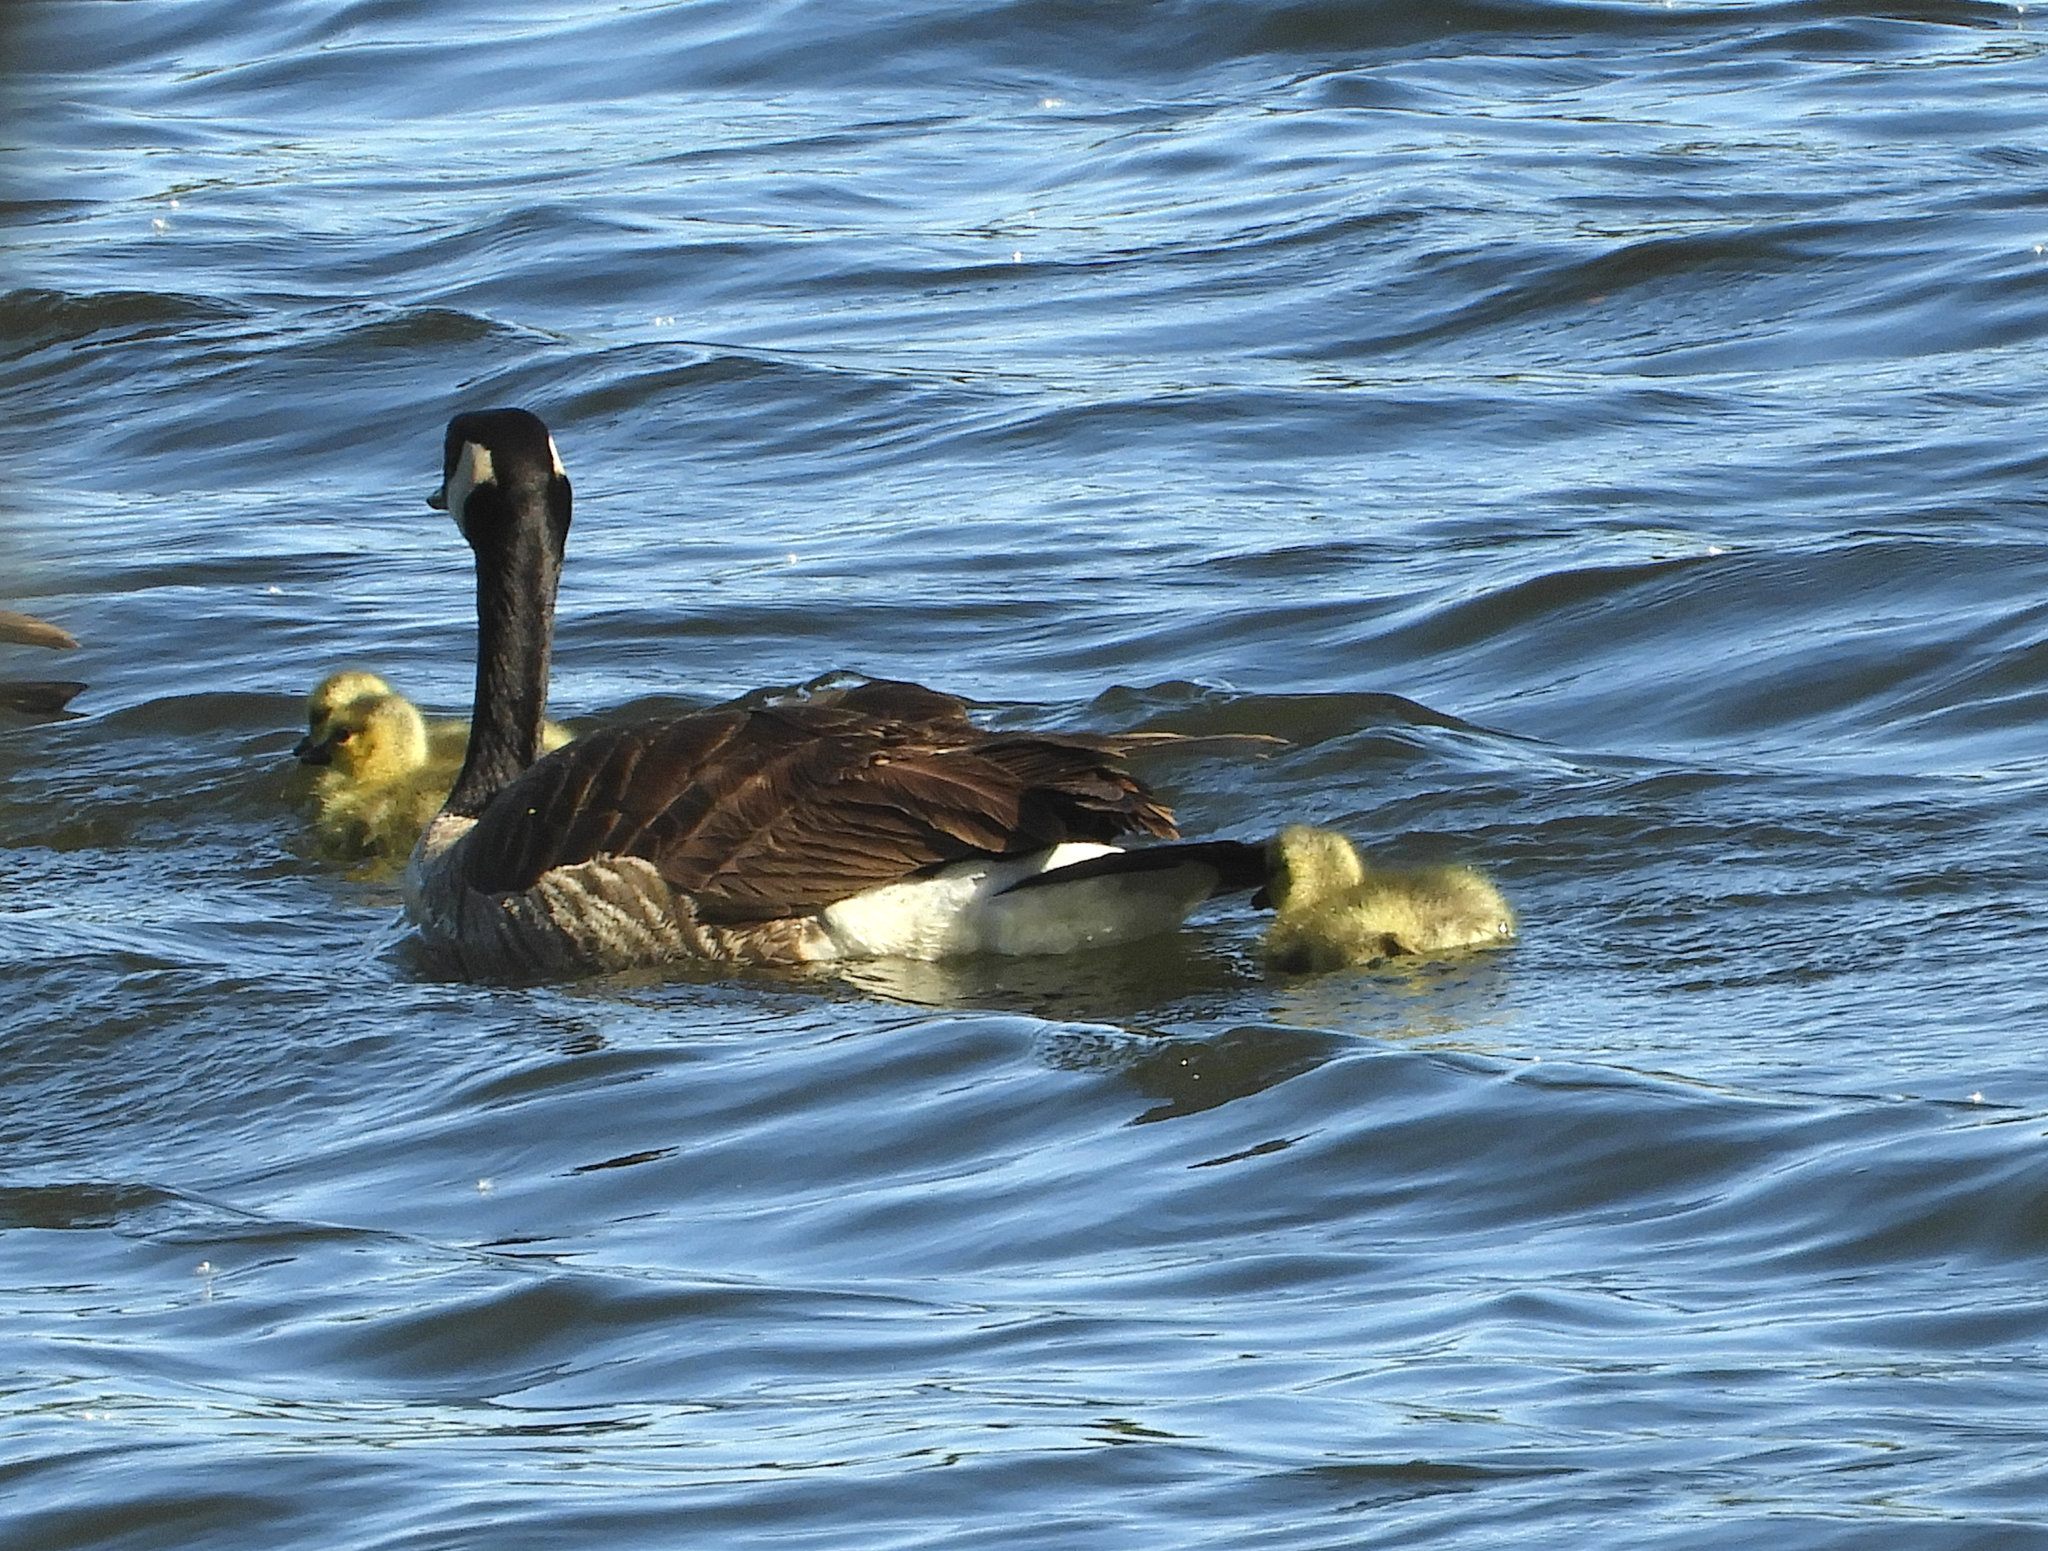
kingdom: Animalia
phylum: Chordata
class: Aves
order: Anseriformes
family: Anatidae
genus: Branta
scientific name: Branta canadensis
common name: Canada goose
